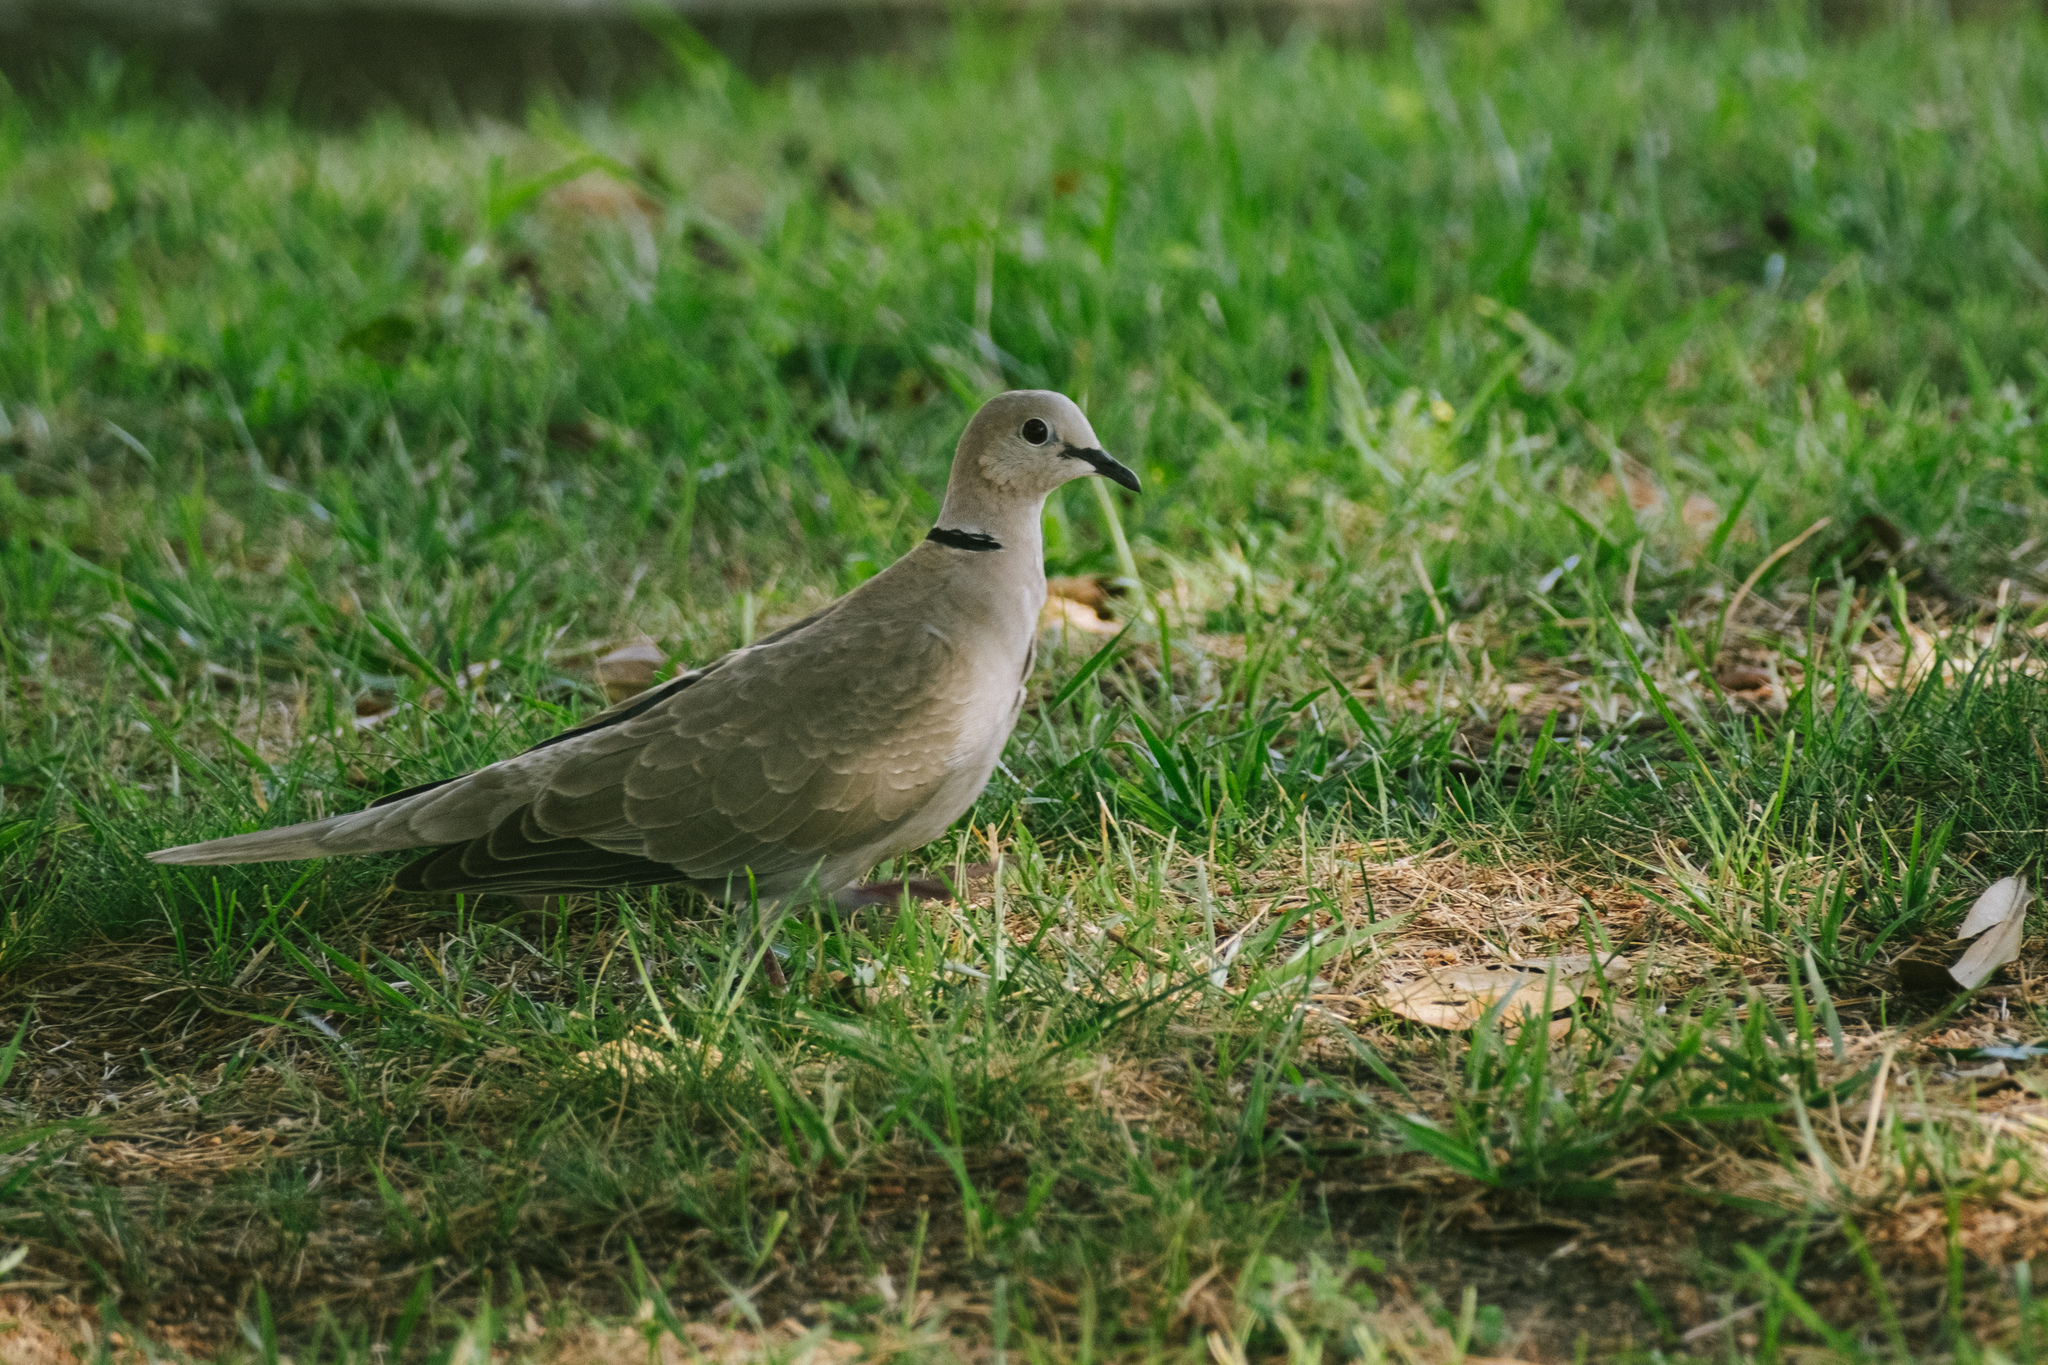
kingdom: Animalia
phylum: Chordata
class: Aves
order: Columbiformes
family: Columbidae
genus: Streptopelia
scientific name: Streptopelia decaocto
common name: Eurasian collared dove
